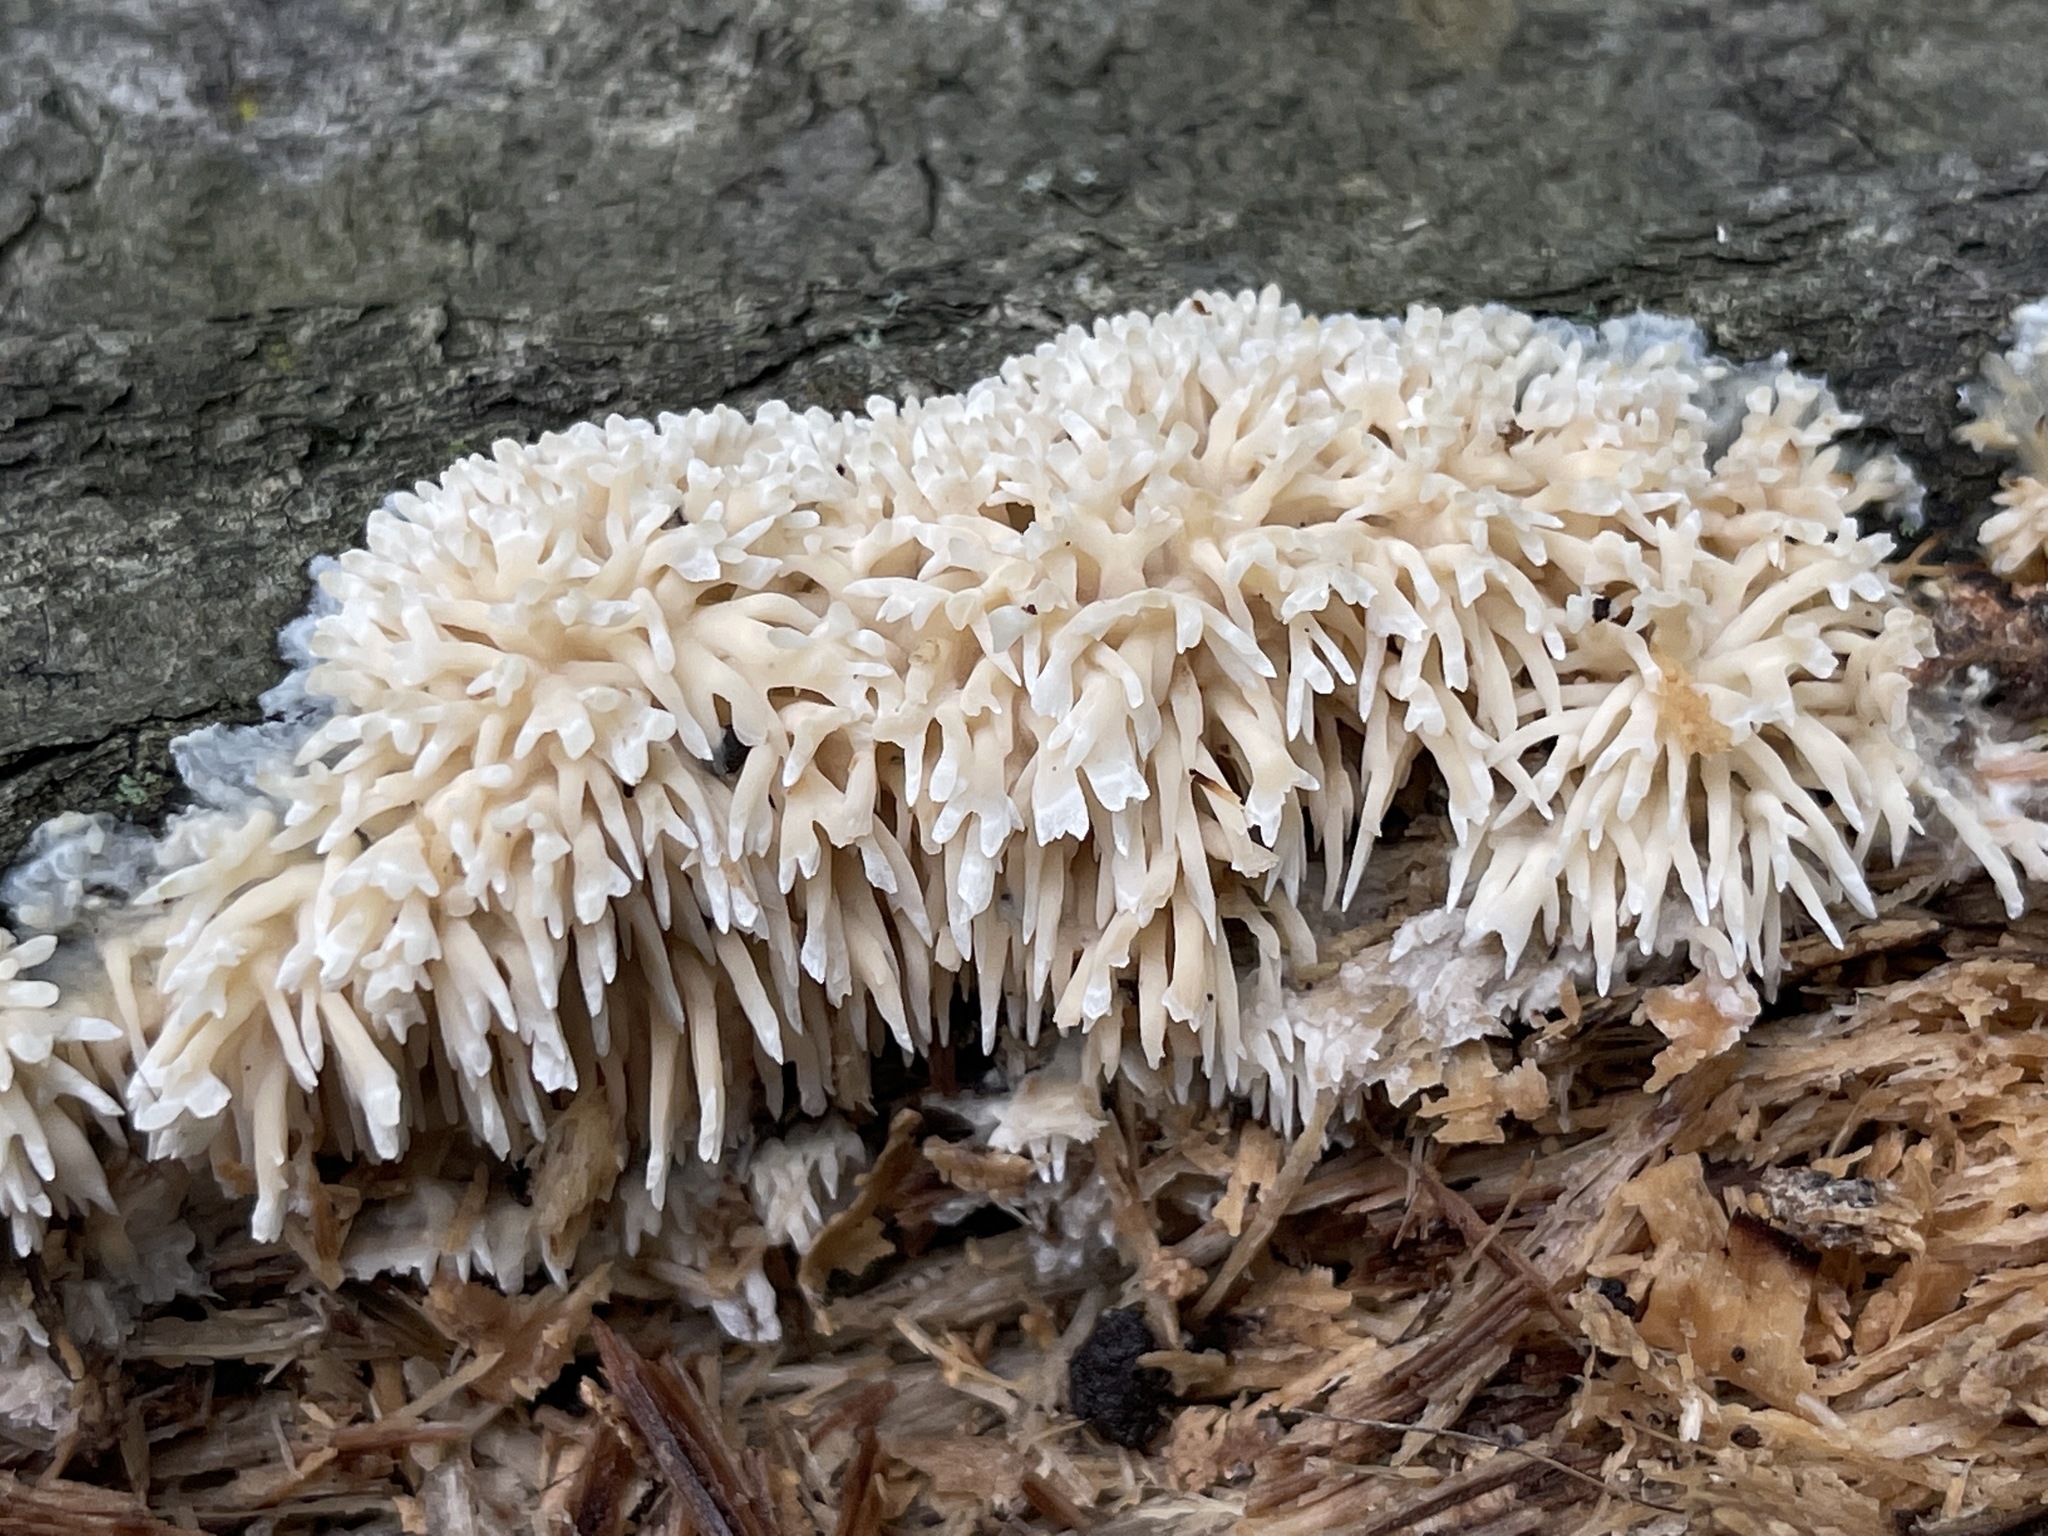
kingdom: Fungi
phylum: Basidiomycota
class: Agaricomycetes
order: Agaricales
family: Radulomycetaceae
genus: Radulomyces
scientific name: Radulomyces copelandii
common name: Asian beauty
